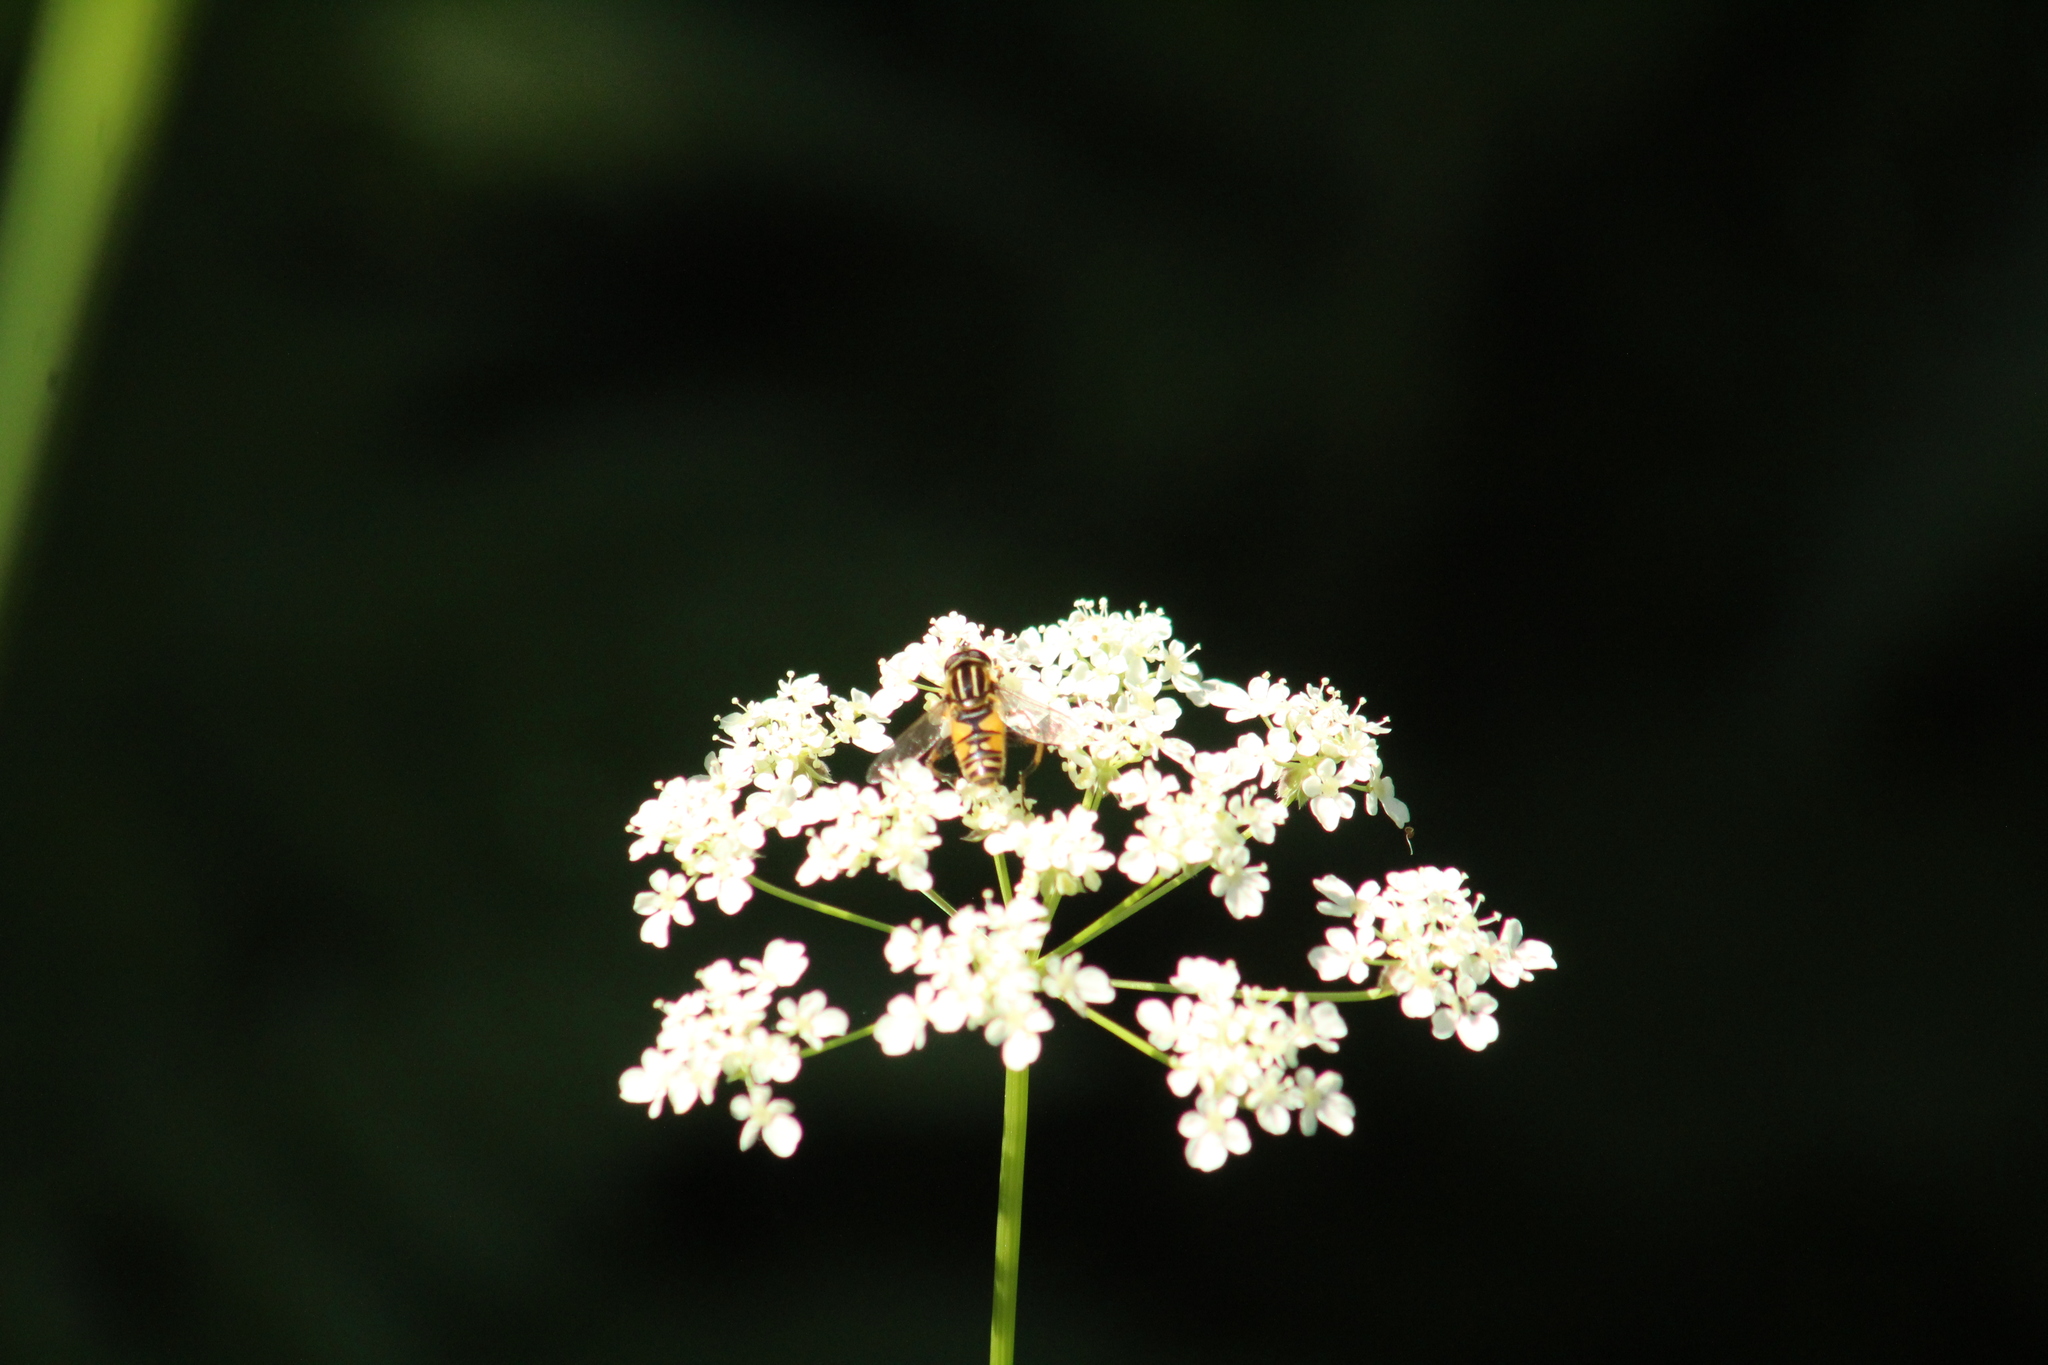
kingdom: Animalia
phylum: Arthropoda
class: Insecta
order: Diptera
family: Syrphidae
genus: Helophilus
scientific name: Helophilus pendulus
